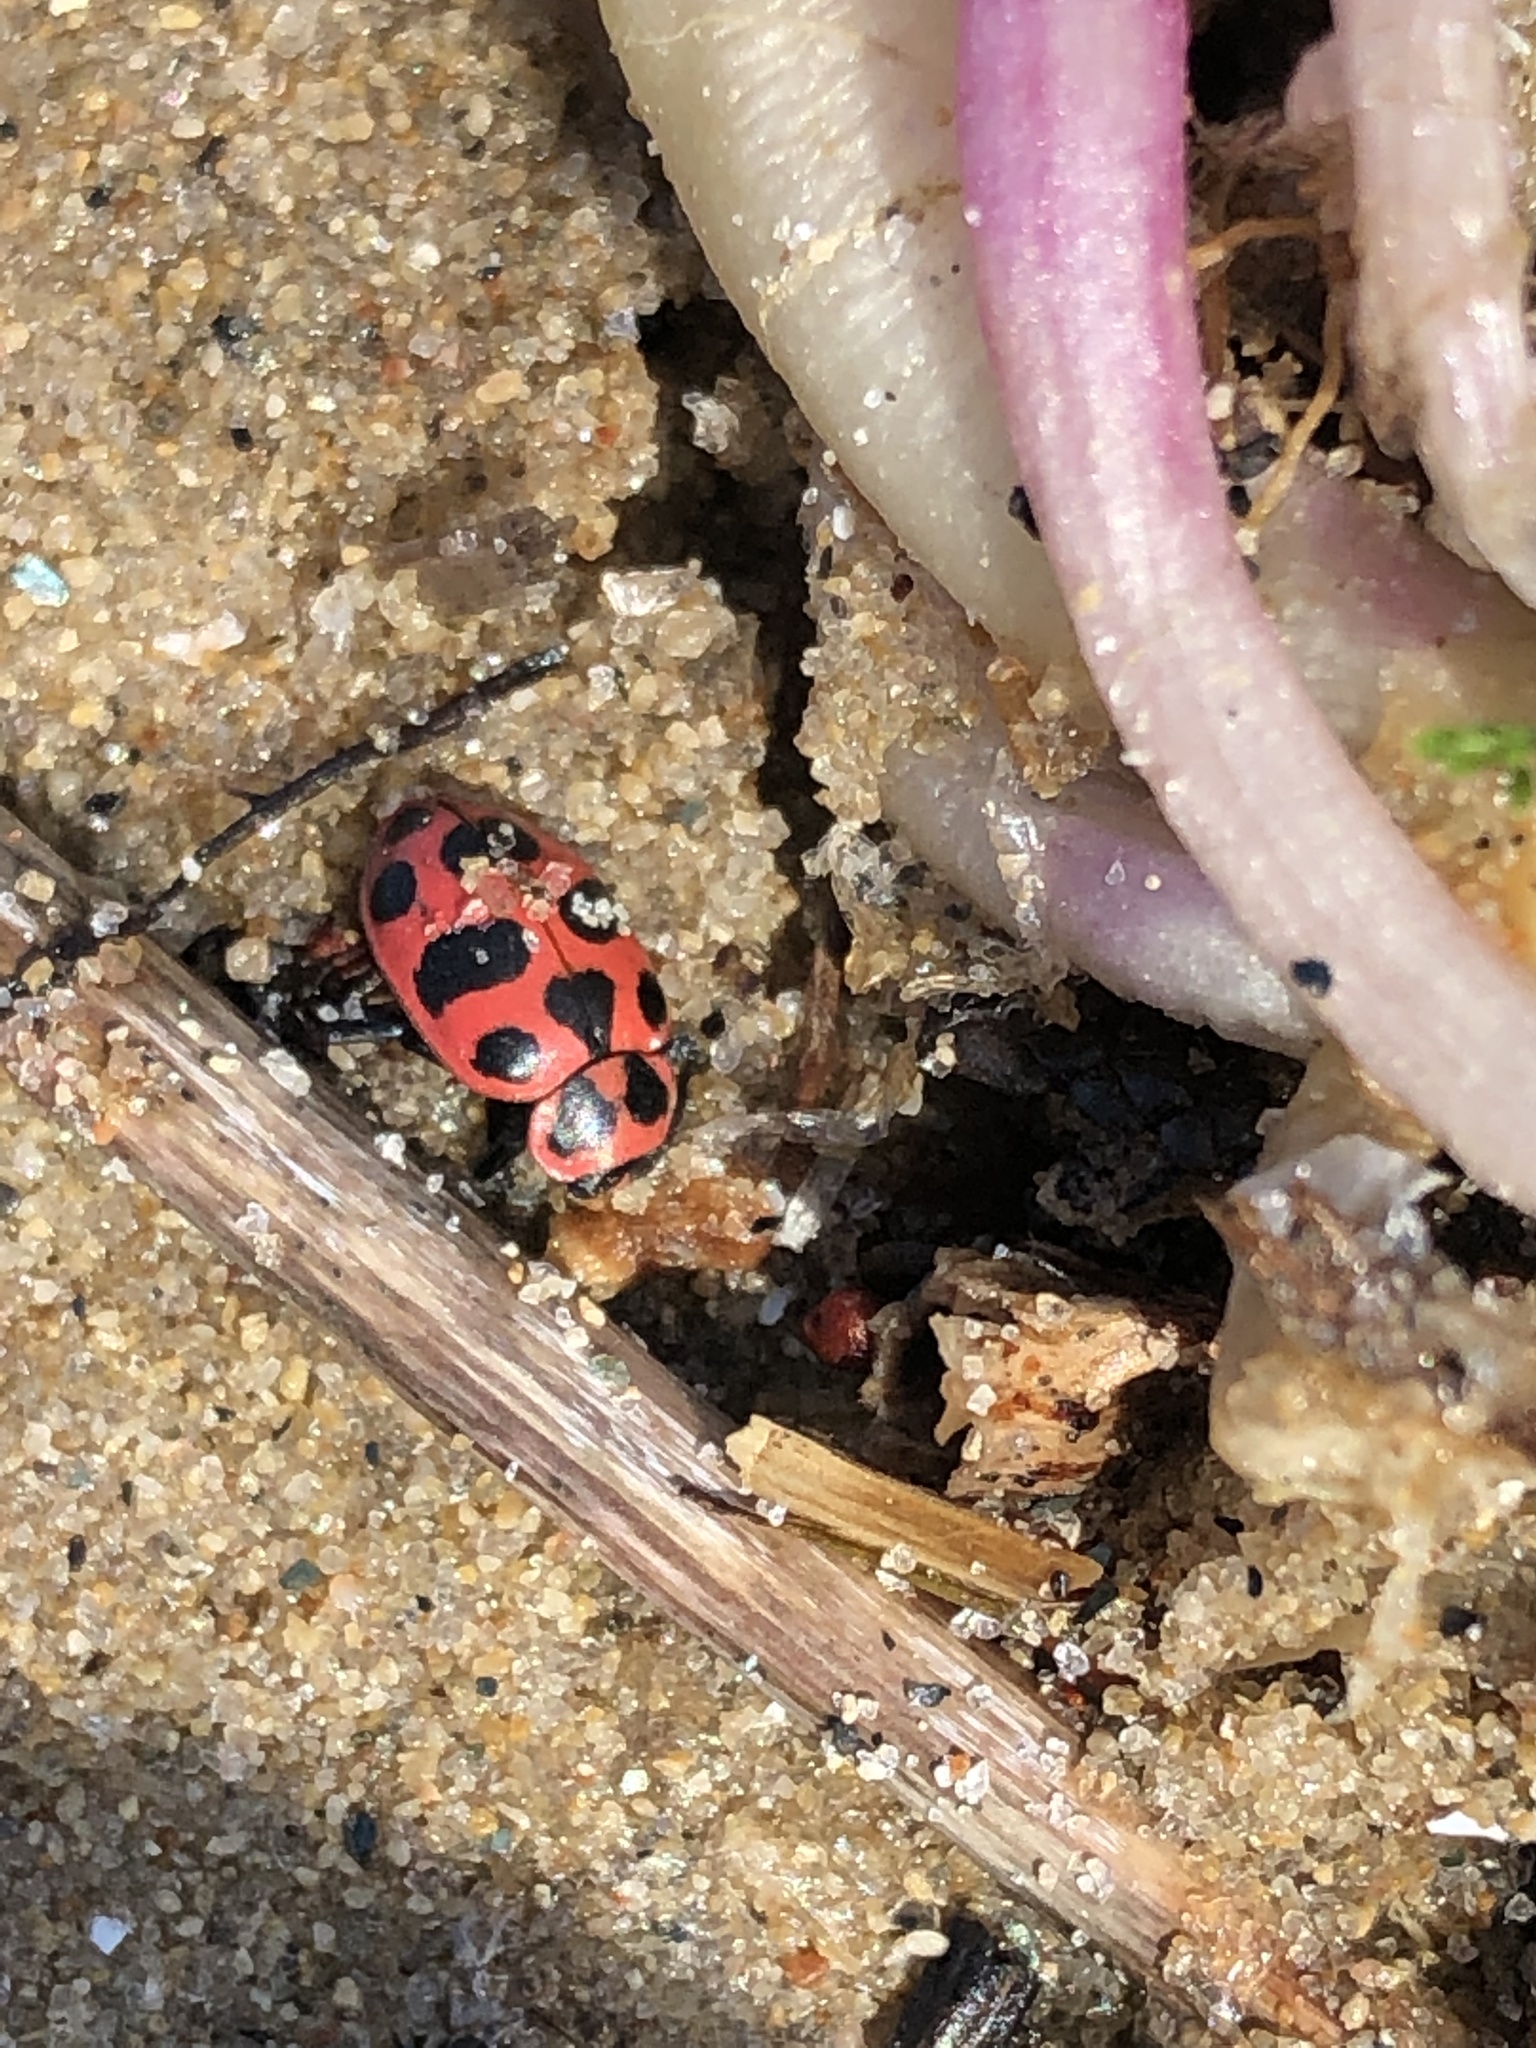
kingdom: Animalia
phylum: Arthropoda
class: Insecta
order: Coleoptera
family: Coccinellidae
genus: Coleomegilla
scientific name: Coleomegilla maculata
